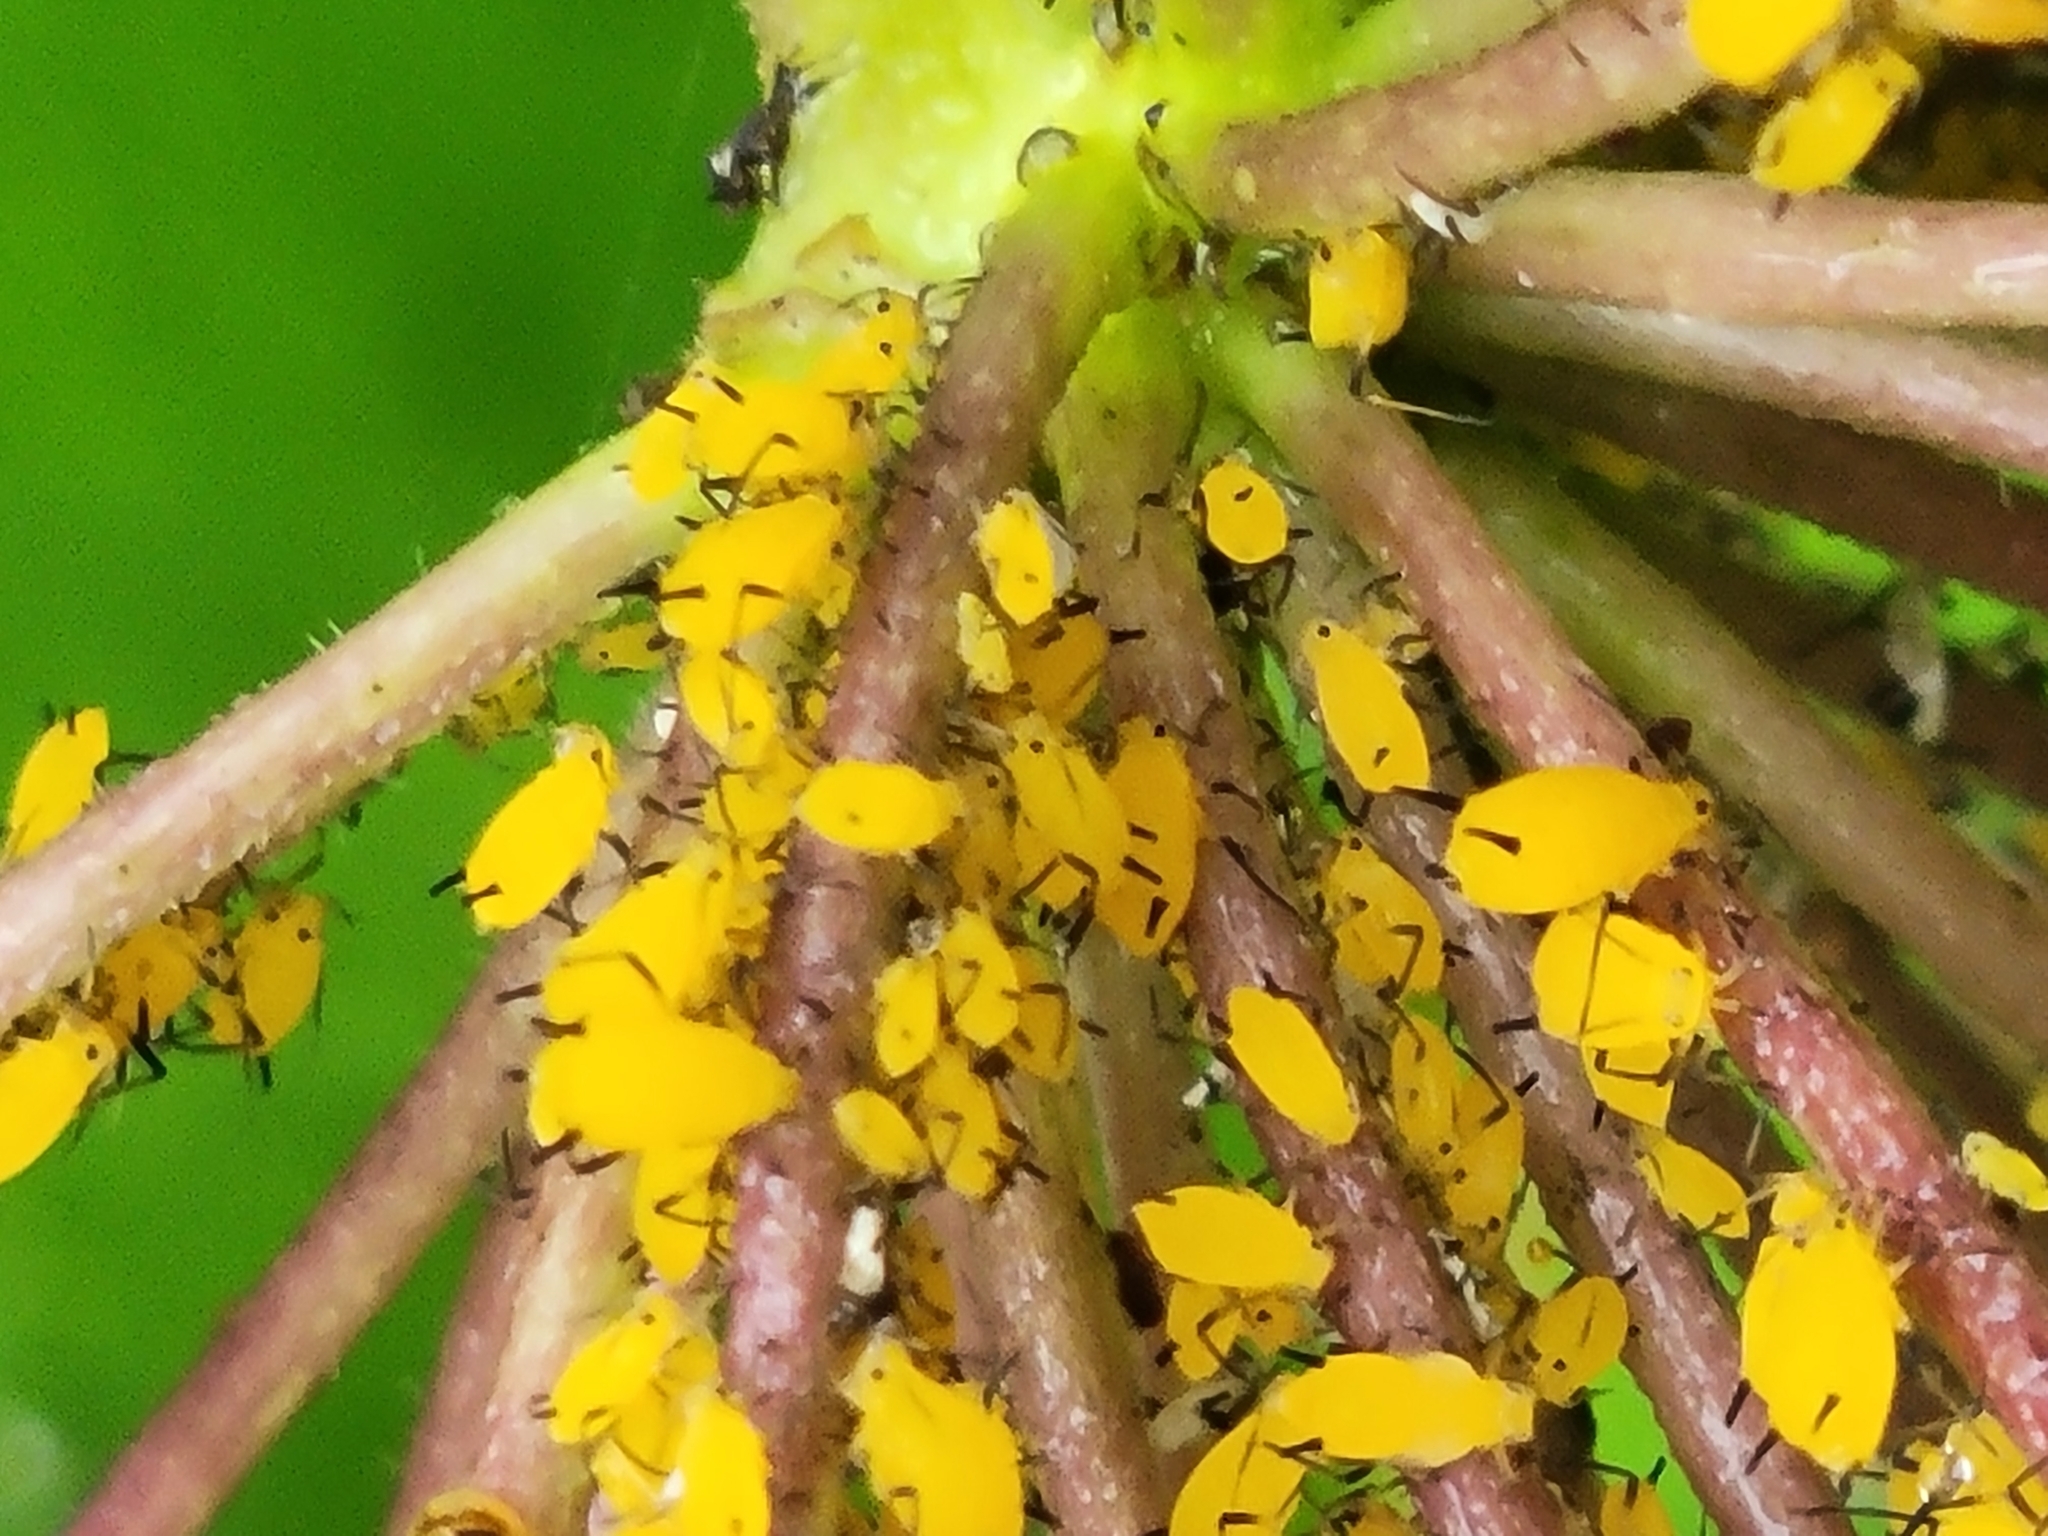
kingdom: Animalia
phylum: Arthropoda
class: Insecta
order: Hemiptera
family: Aphididae
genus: Aphis
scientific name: Aphis nerii
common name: Oleander aphid
